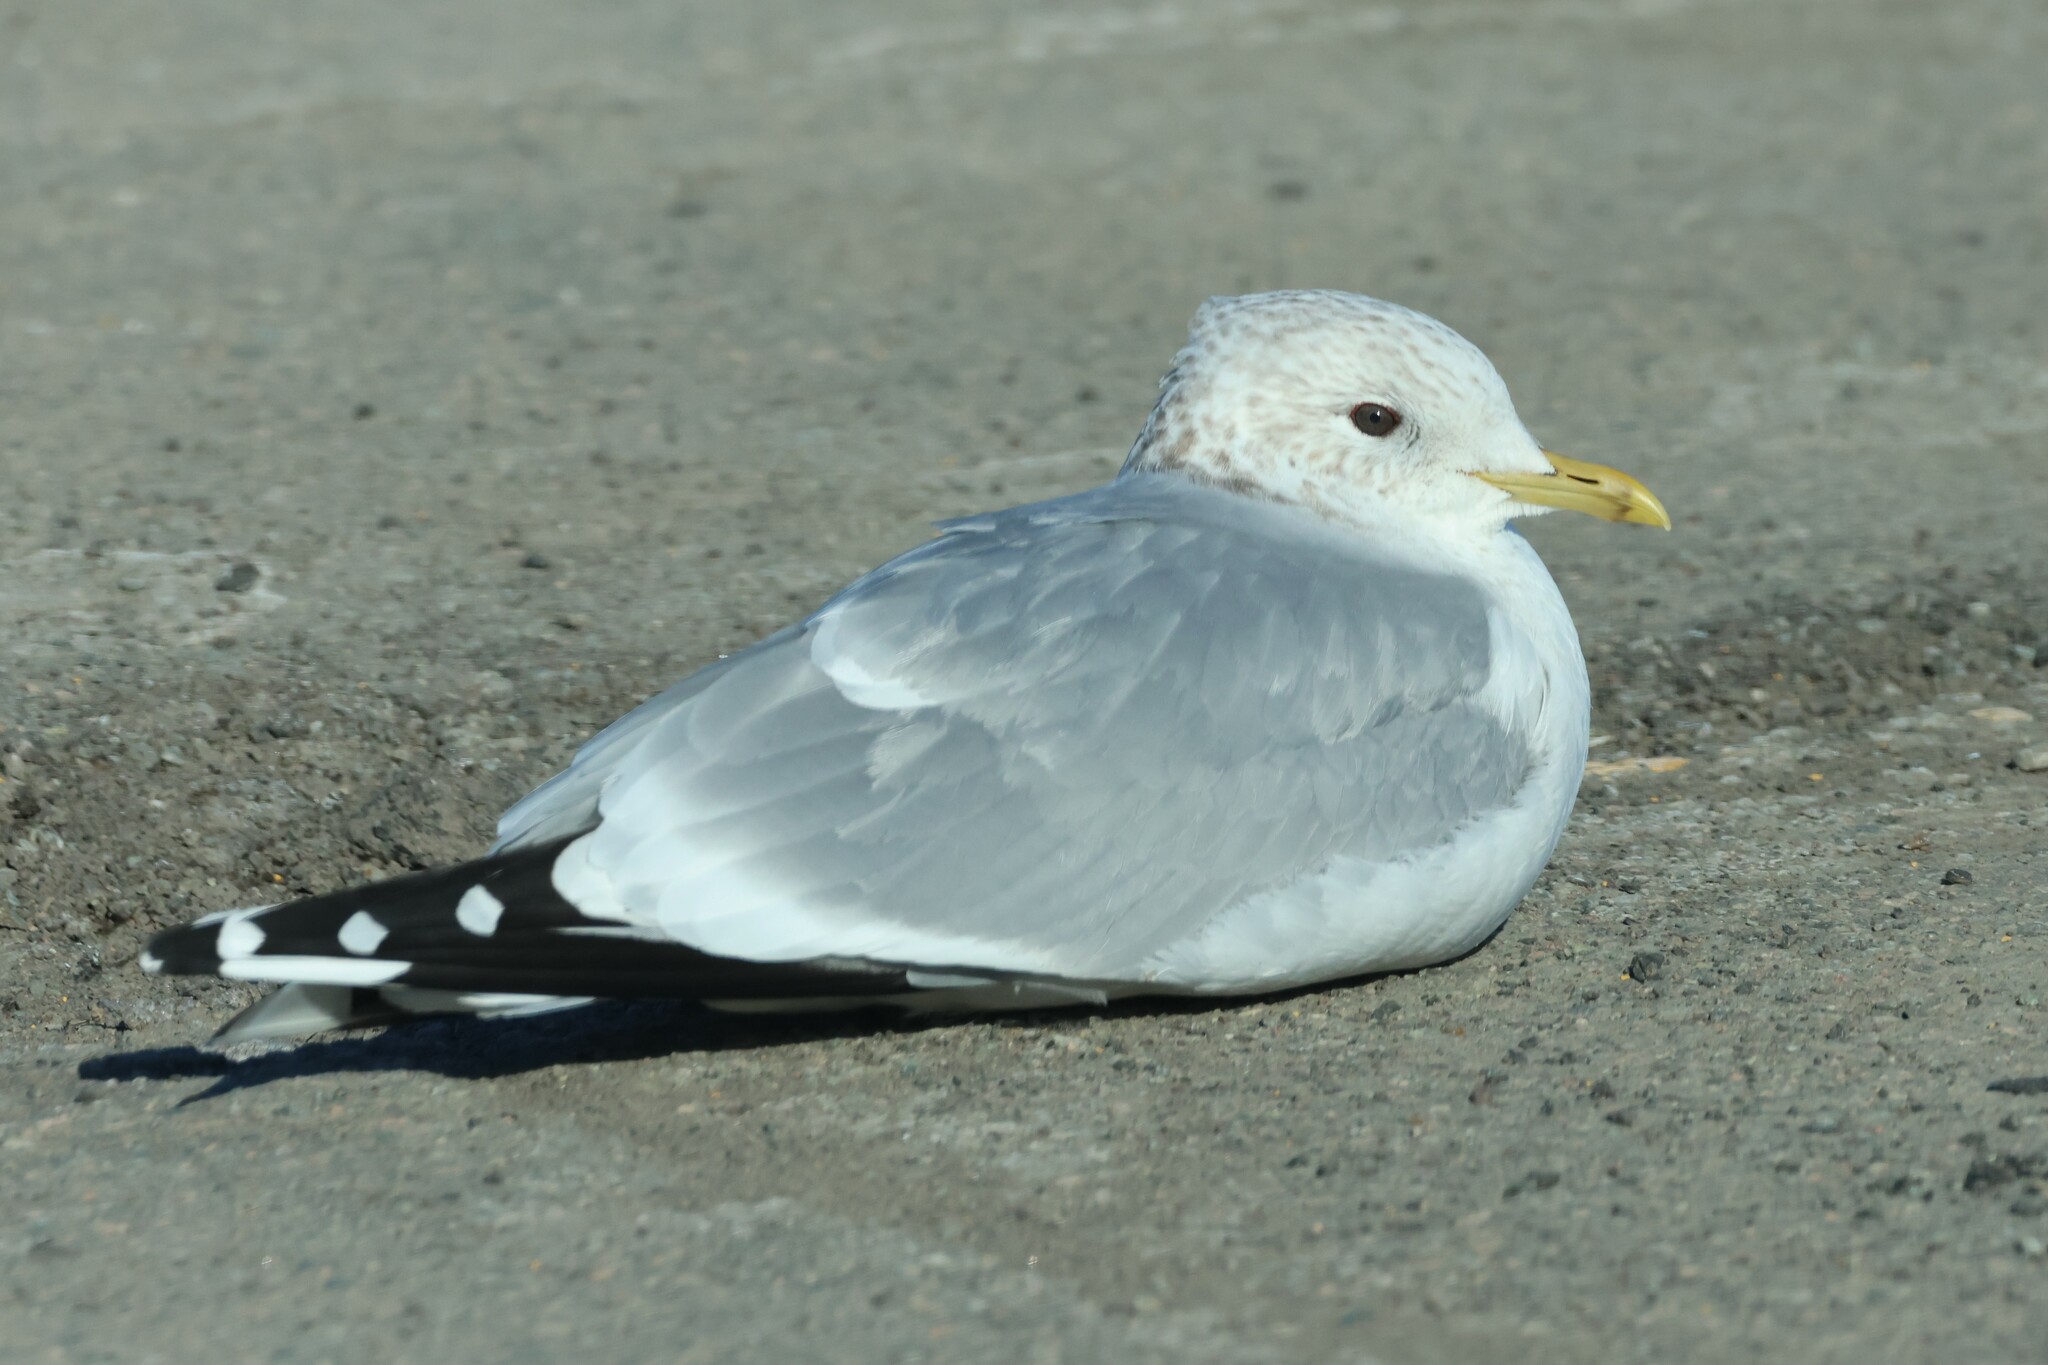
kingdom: Animalia
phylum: Chordata
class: Aves
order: Charadriiformes
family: Laridae
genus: Larus
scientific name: Larus canus
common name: Mew gull
